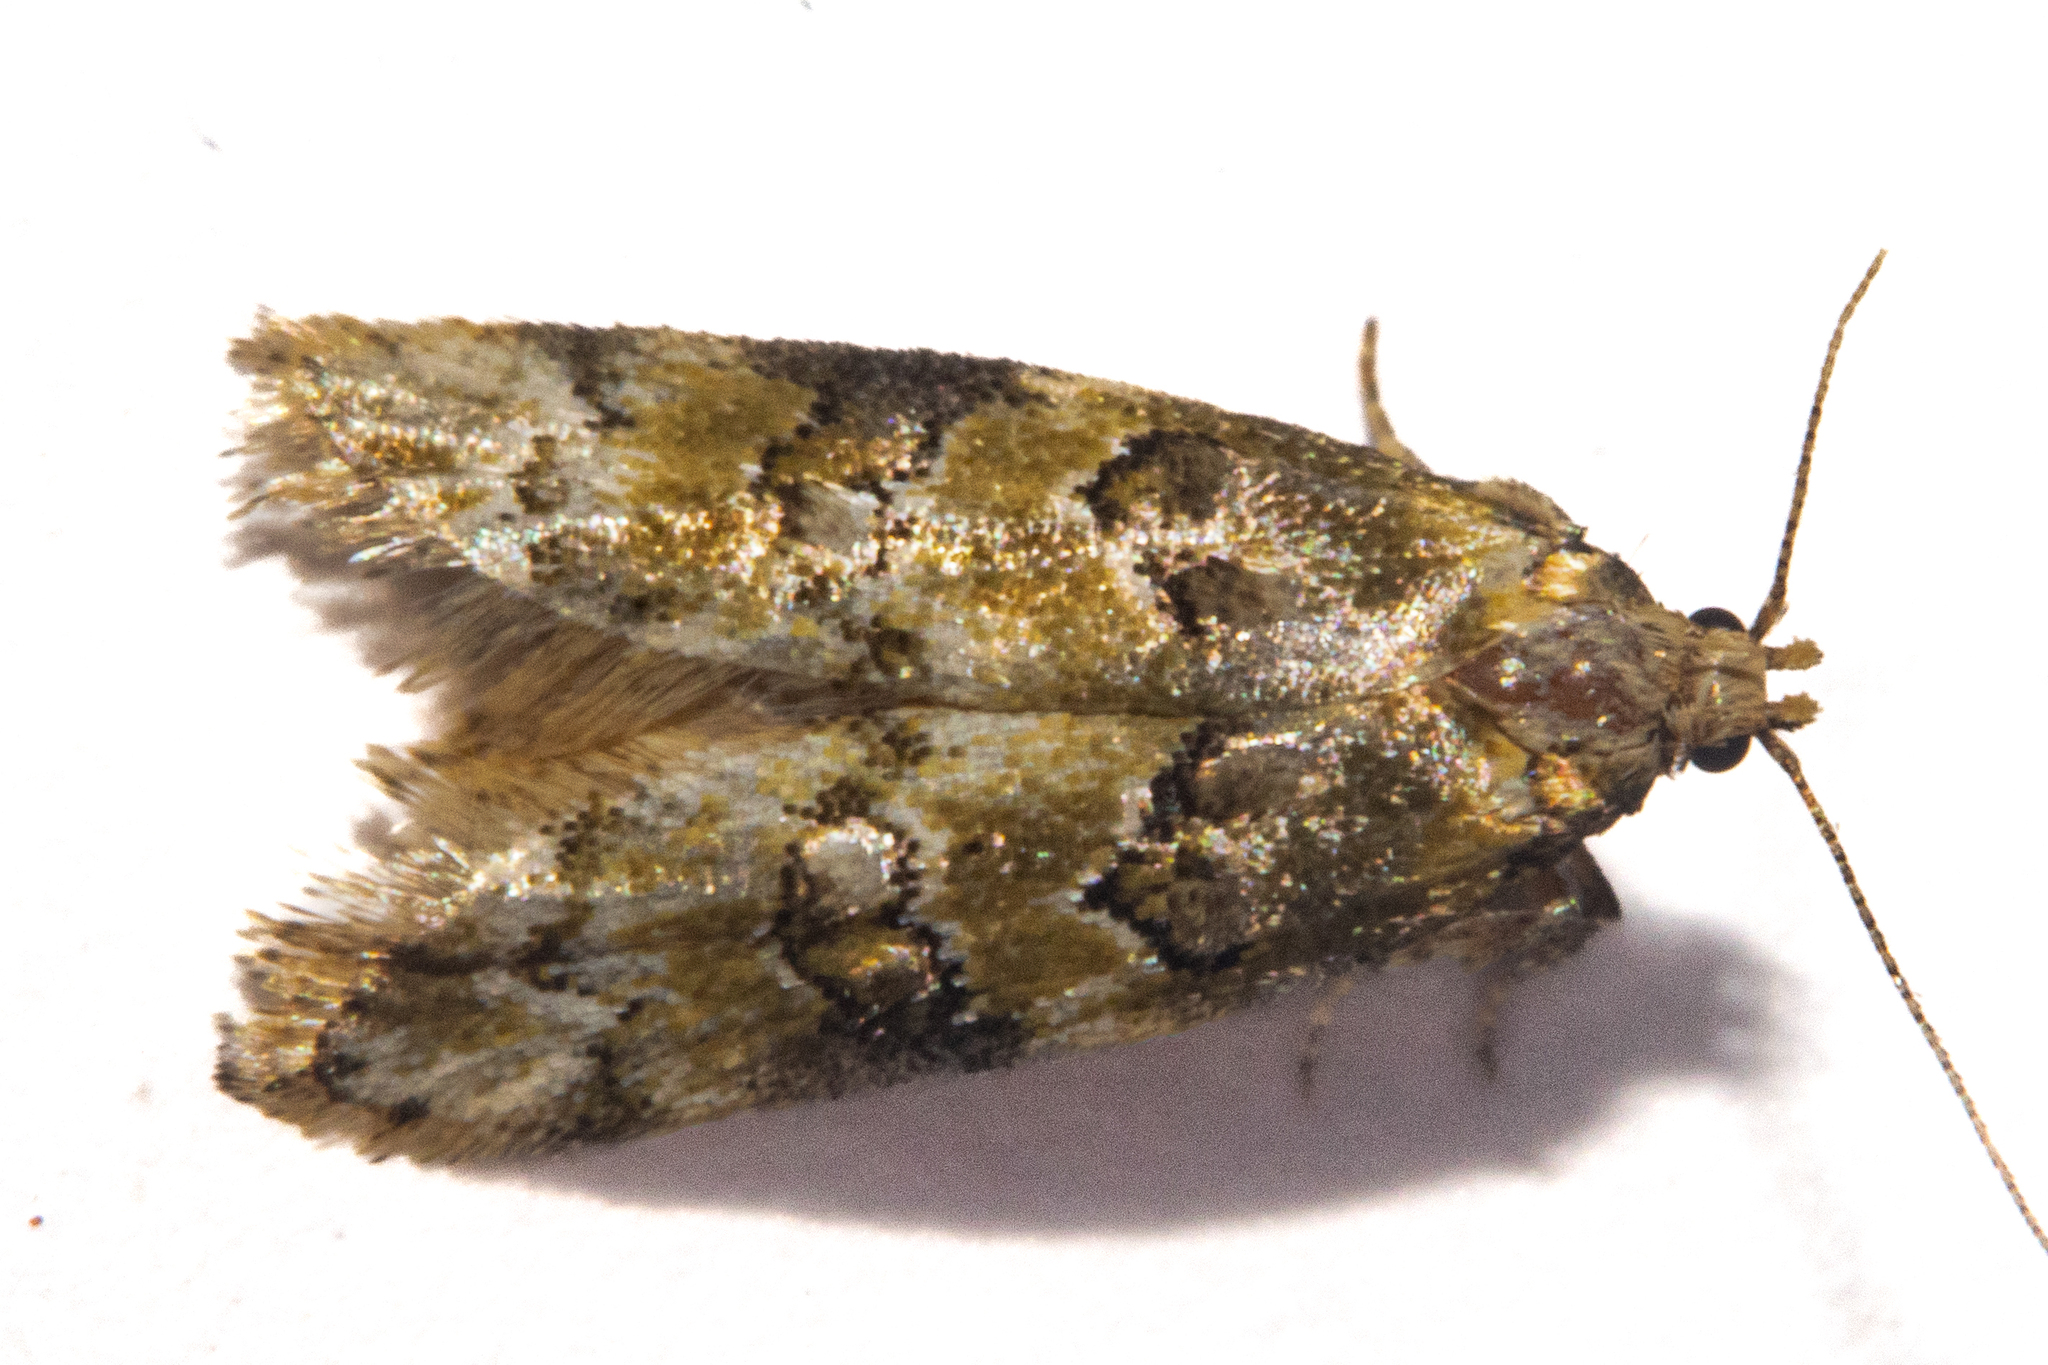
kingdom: Animalia
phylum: Arthropoda
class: Insecta
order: Lepidoptera
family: Oecophoridae
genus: Trachypepla
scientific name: Trachypepla protochlora
